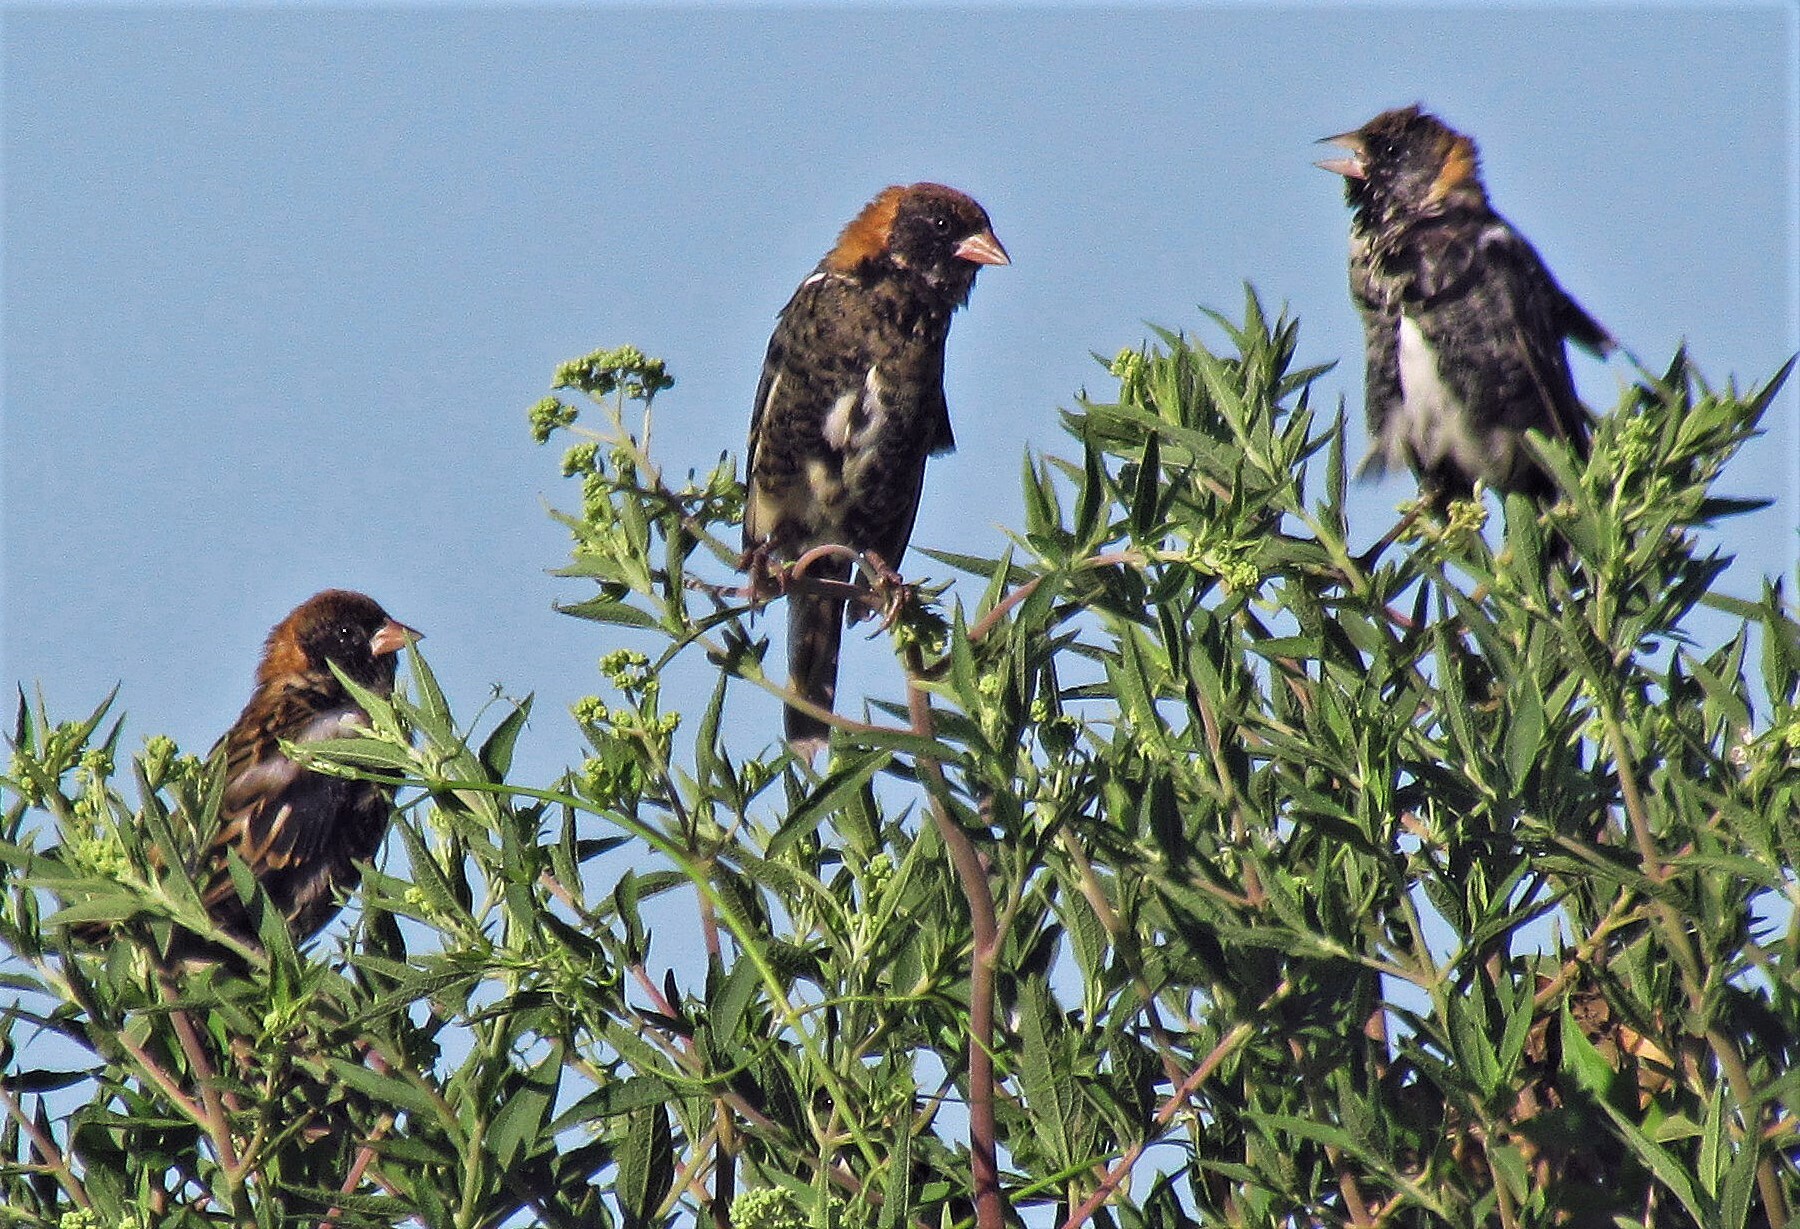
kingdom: Animalia
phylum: Chordata
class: Aves
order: Passeriformes
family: Icteridae
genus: Dolichonyx
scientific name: Dolichonyx oryzivorus
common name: Bobolink
